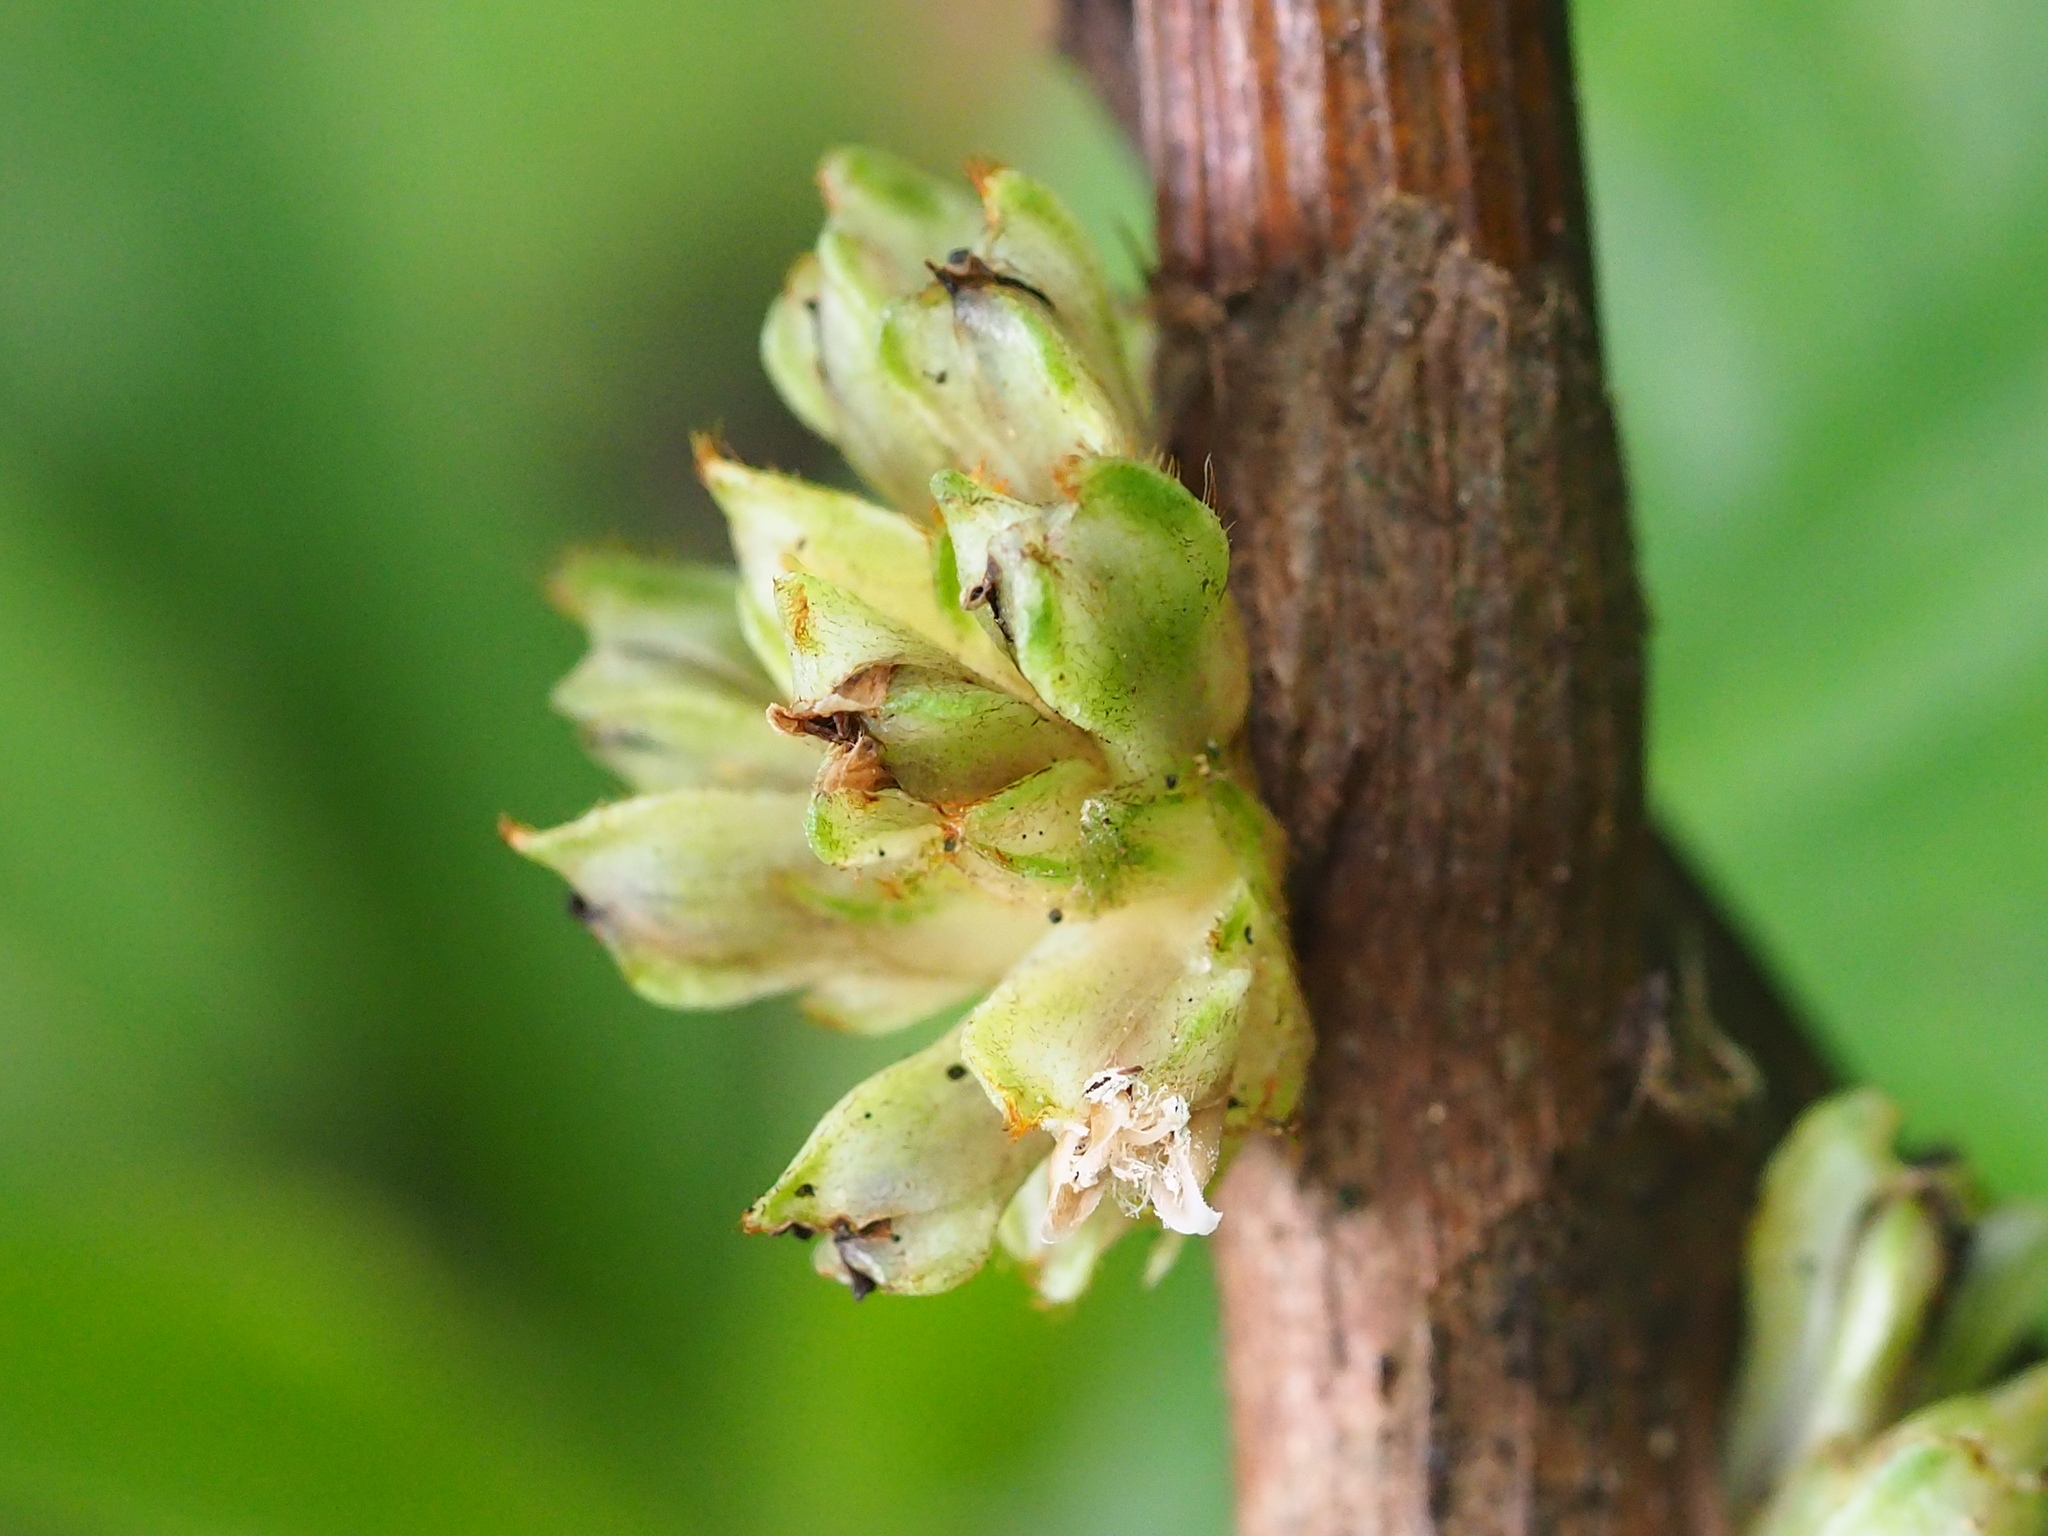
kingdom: Plantae
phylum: Tracheophyta
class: Liliopsida
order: Commelinales
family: Commelinaceae
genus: Amischotolype
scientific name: Amischotolype glabrata
